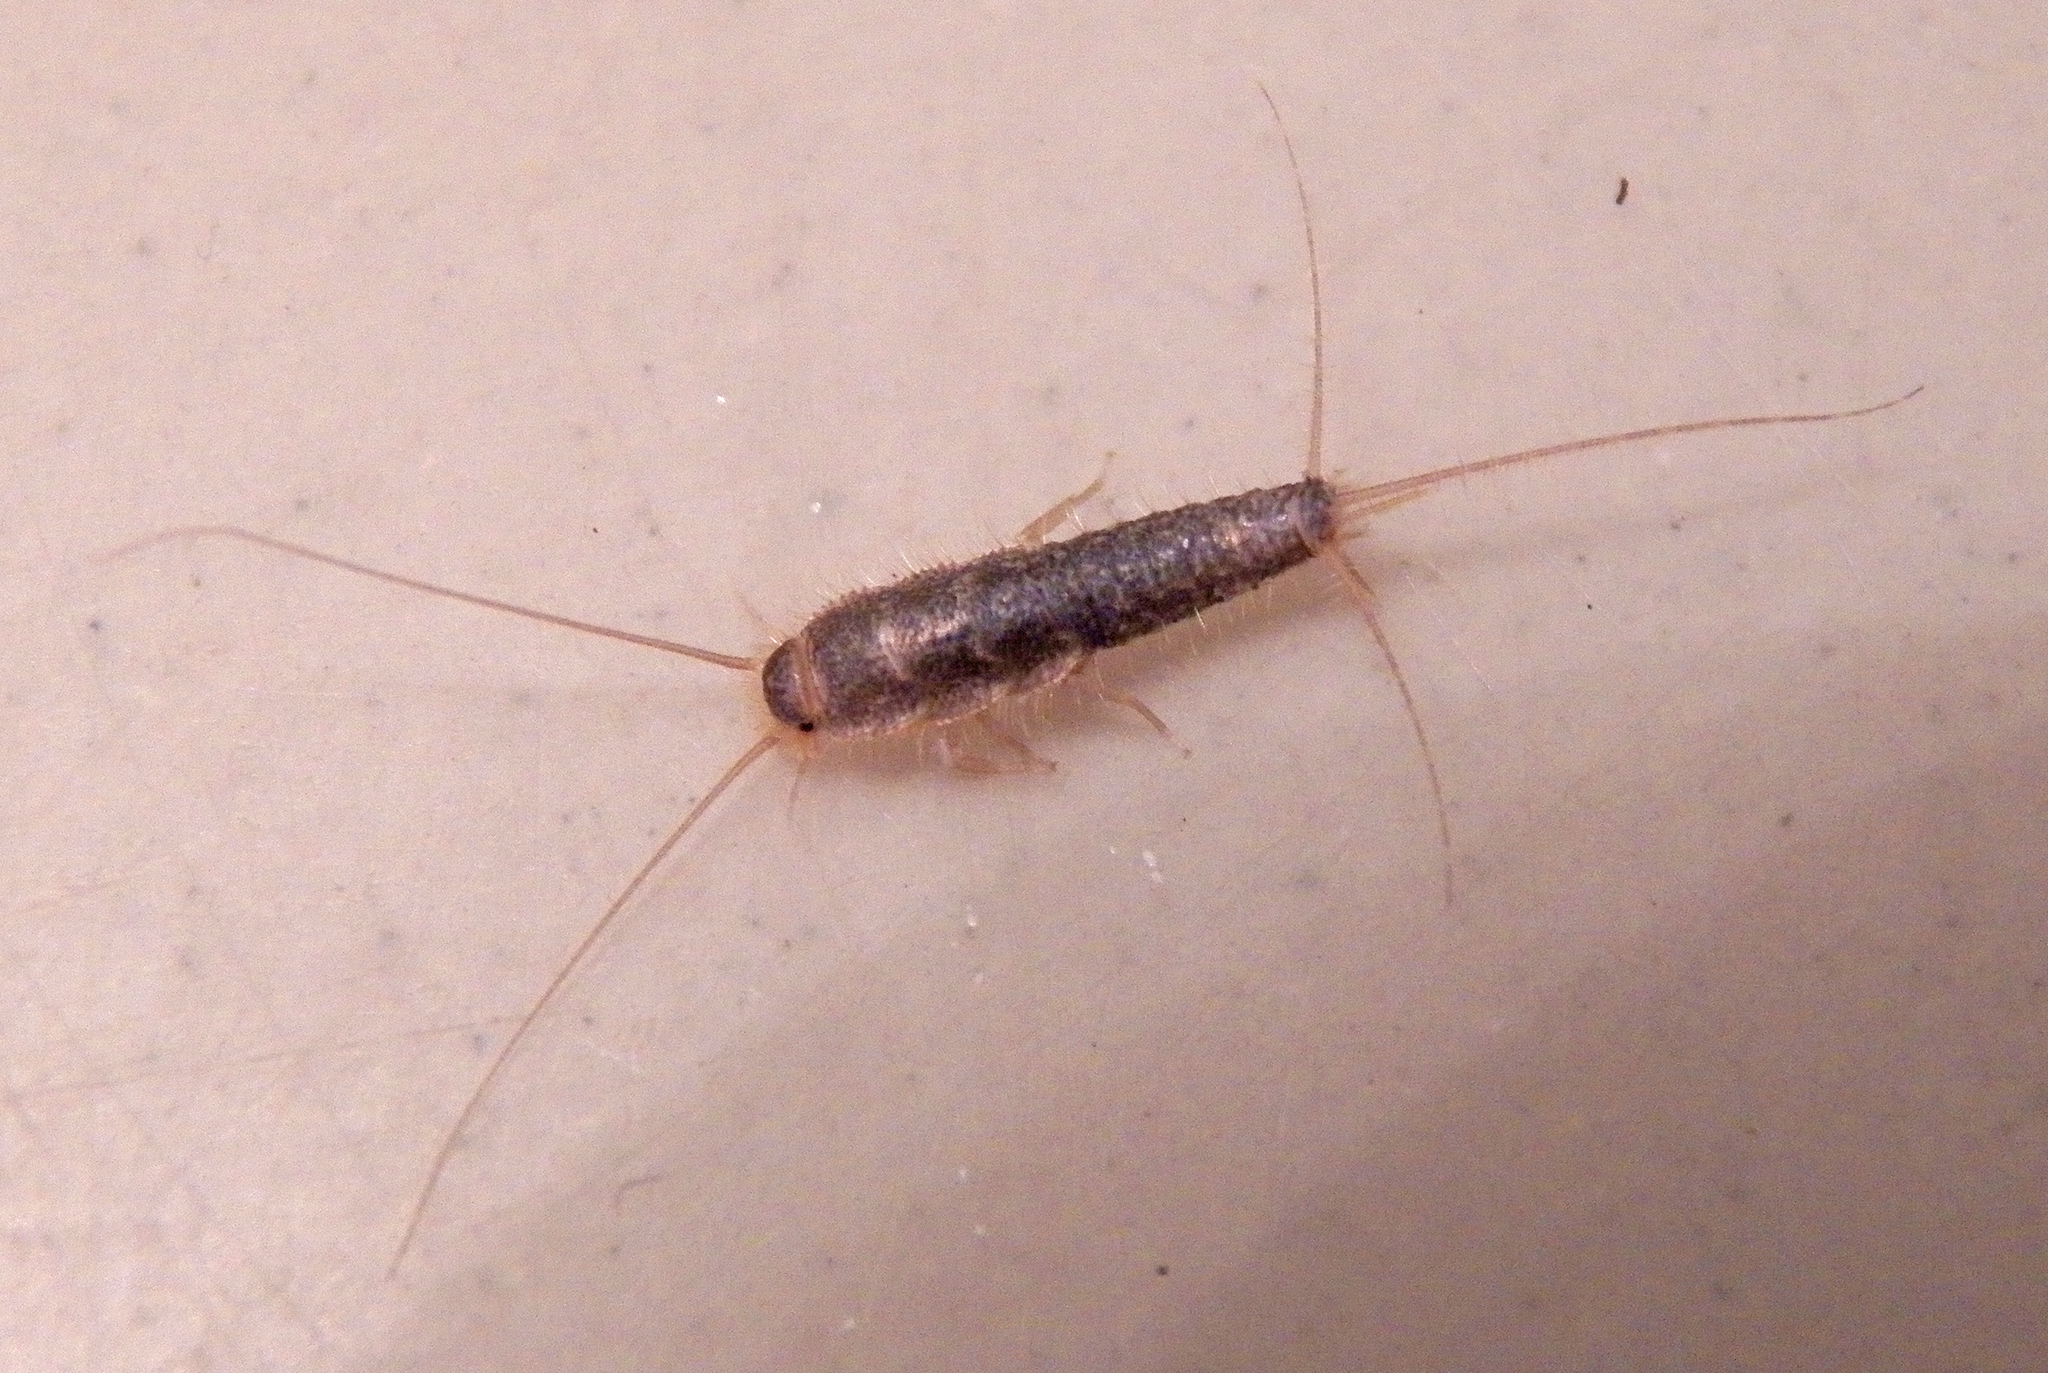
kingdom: Animalia
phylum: Arthropoda
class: Insecta
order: Zygentoma
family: Lepismatidae
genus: Ctenolepisma
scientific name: Ctenolepisma longicaudatum
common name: Silverfish
